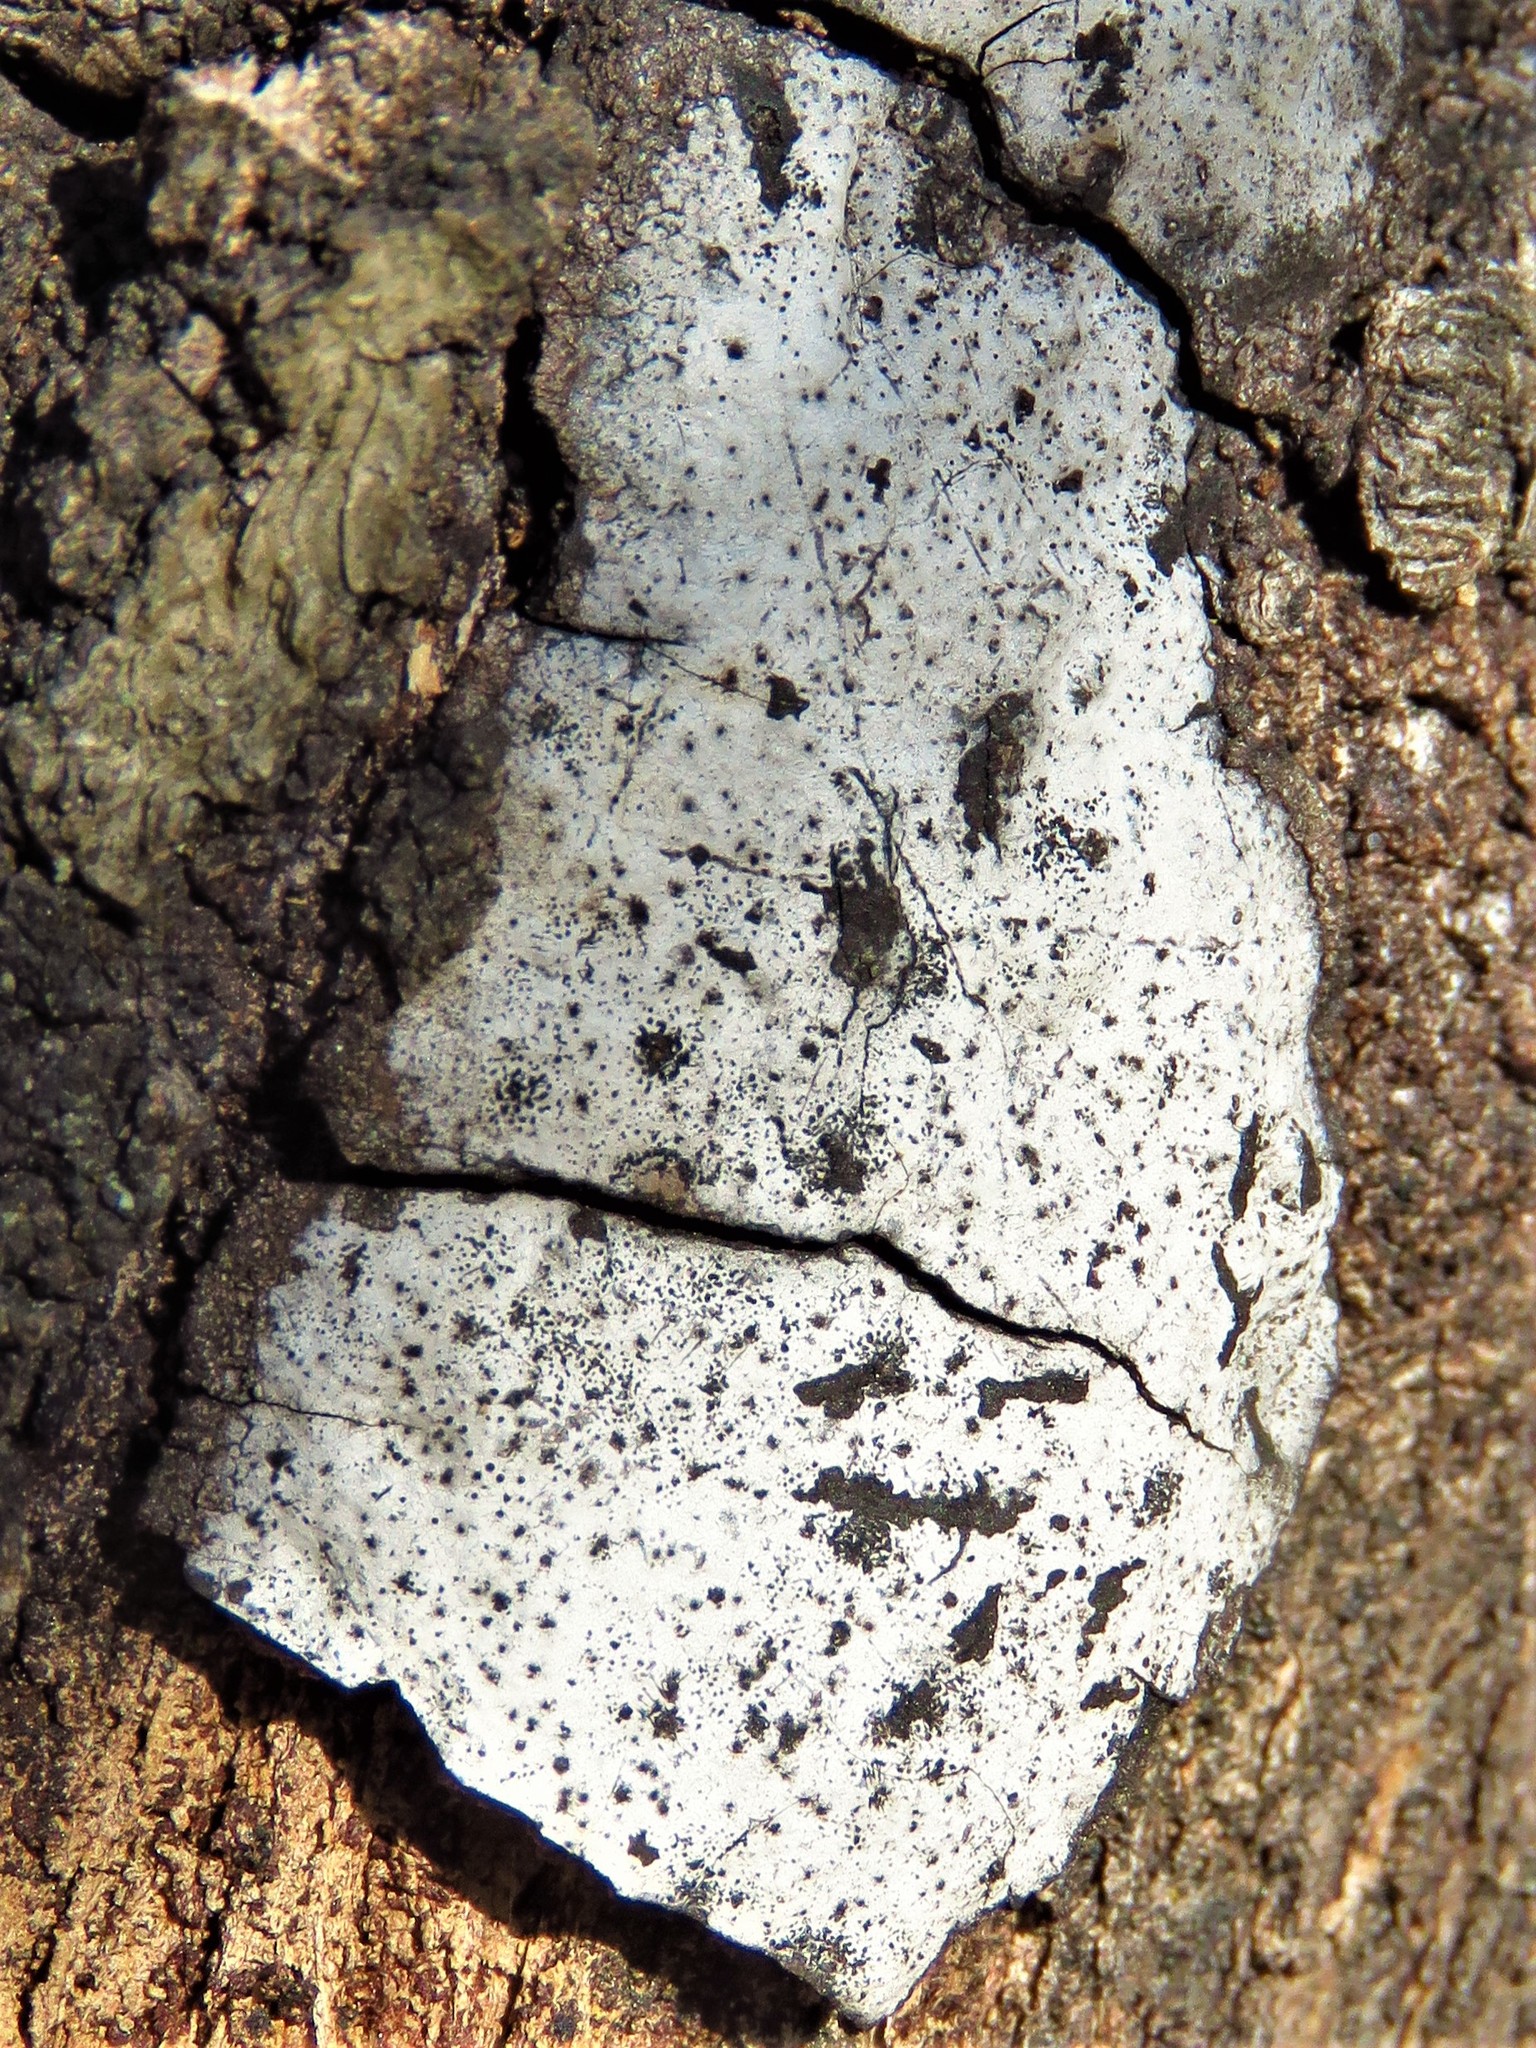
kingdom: Fungi
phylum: Ascomycota
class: Sordariomycetes
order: Xylariales
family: Graphostromataceae
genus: Biscogniauxia
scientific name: Biscogniauxia atropunctata
